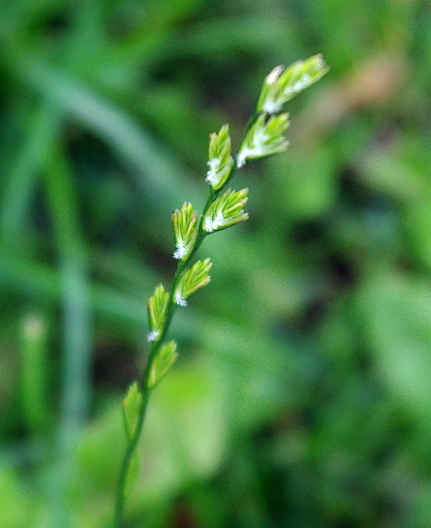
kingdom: Plantae
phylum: Tracheophyta
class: Liliopsida
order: Poales
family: Poaceae
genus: Lolium
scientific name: Lolium perenne
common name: Perennial ryegrass
